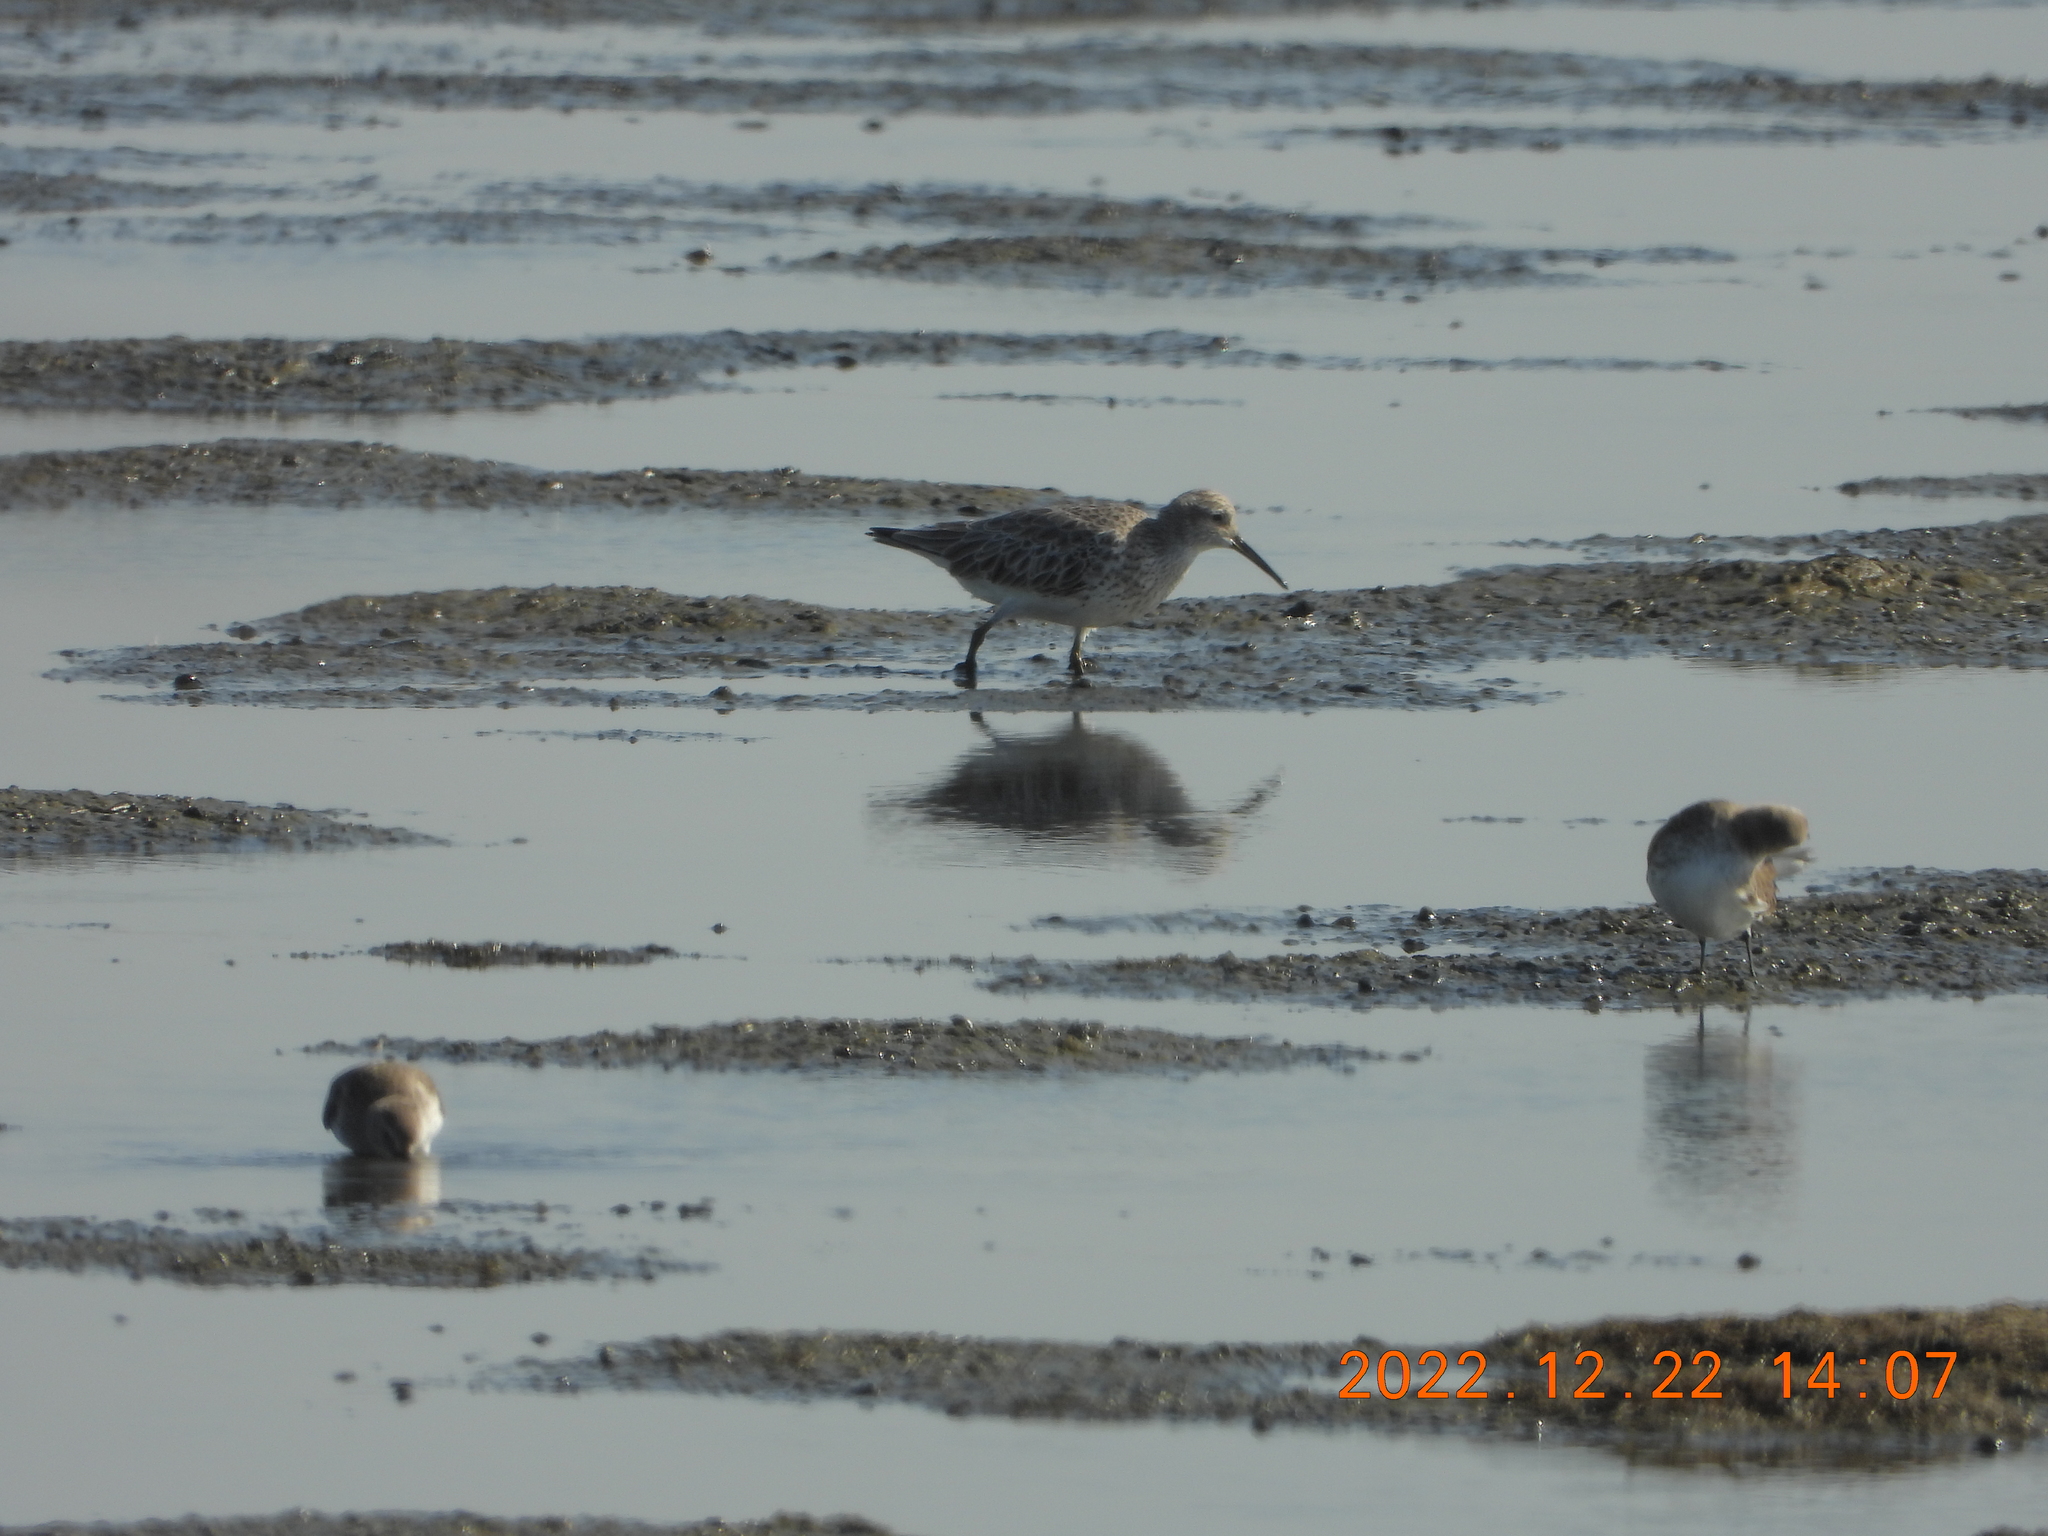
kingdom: Animalia
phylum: Chordata
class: Aves
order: Charadriiformes
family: Scolopacidae
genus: Calidris
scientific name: Calidris tenuirostris
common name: Great knot
